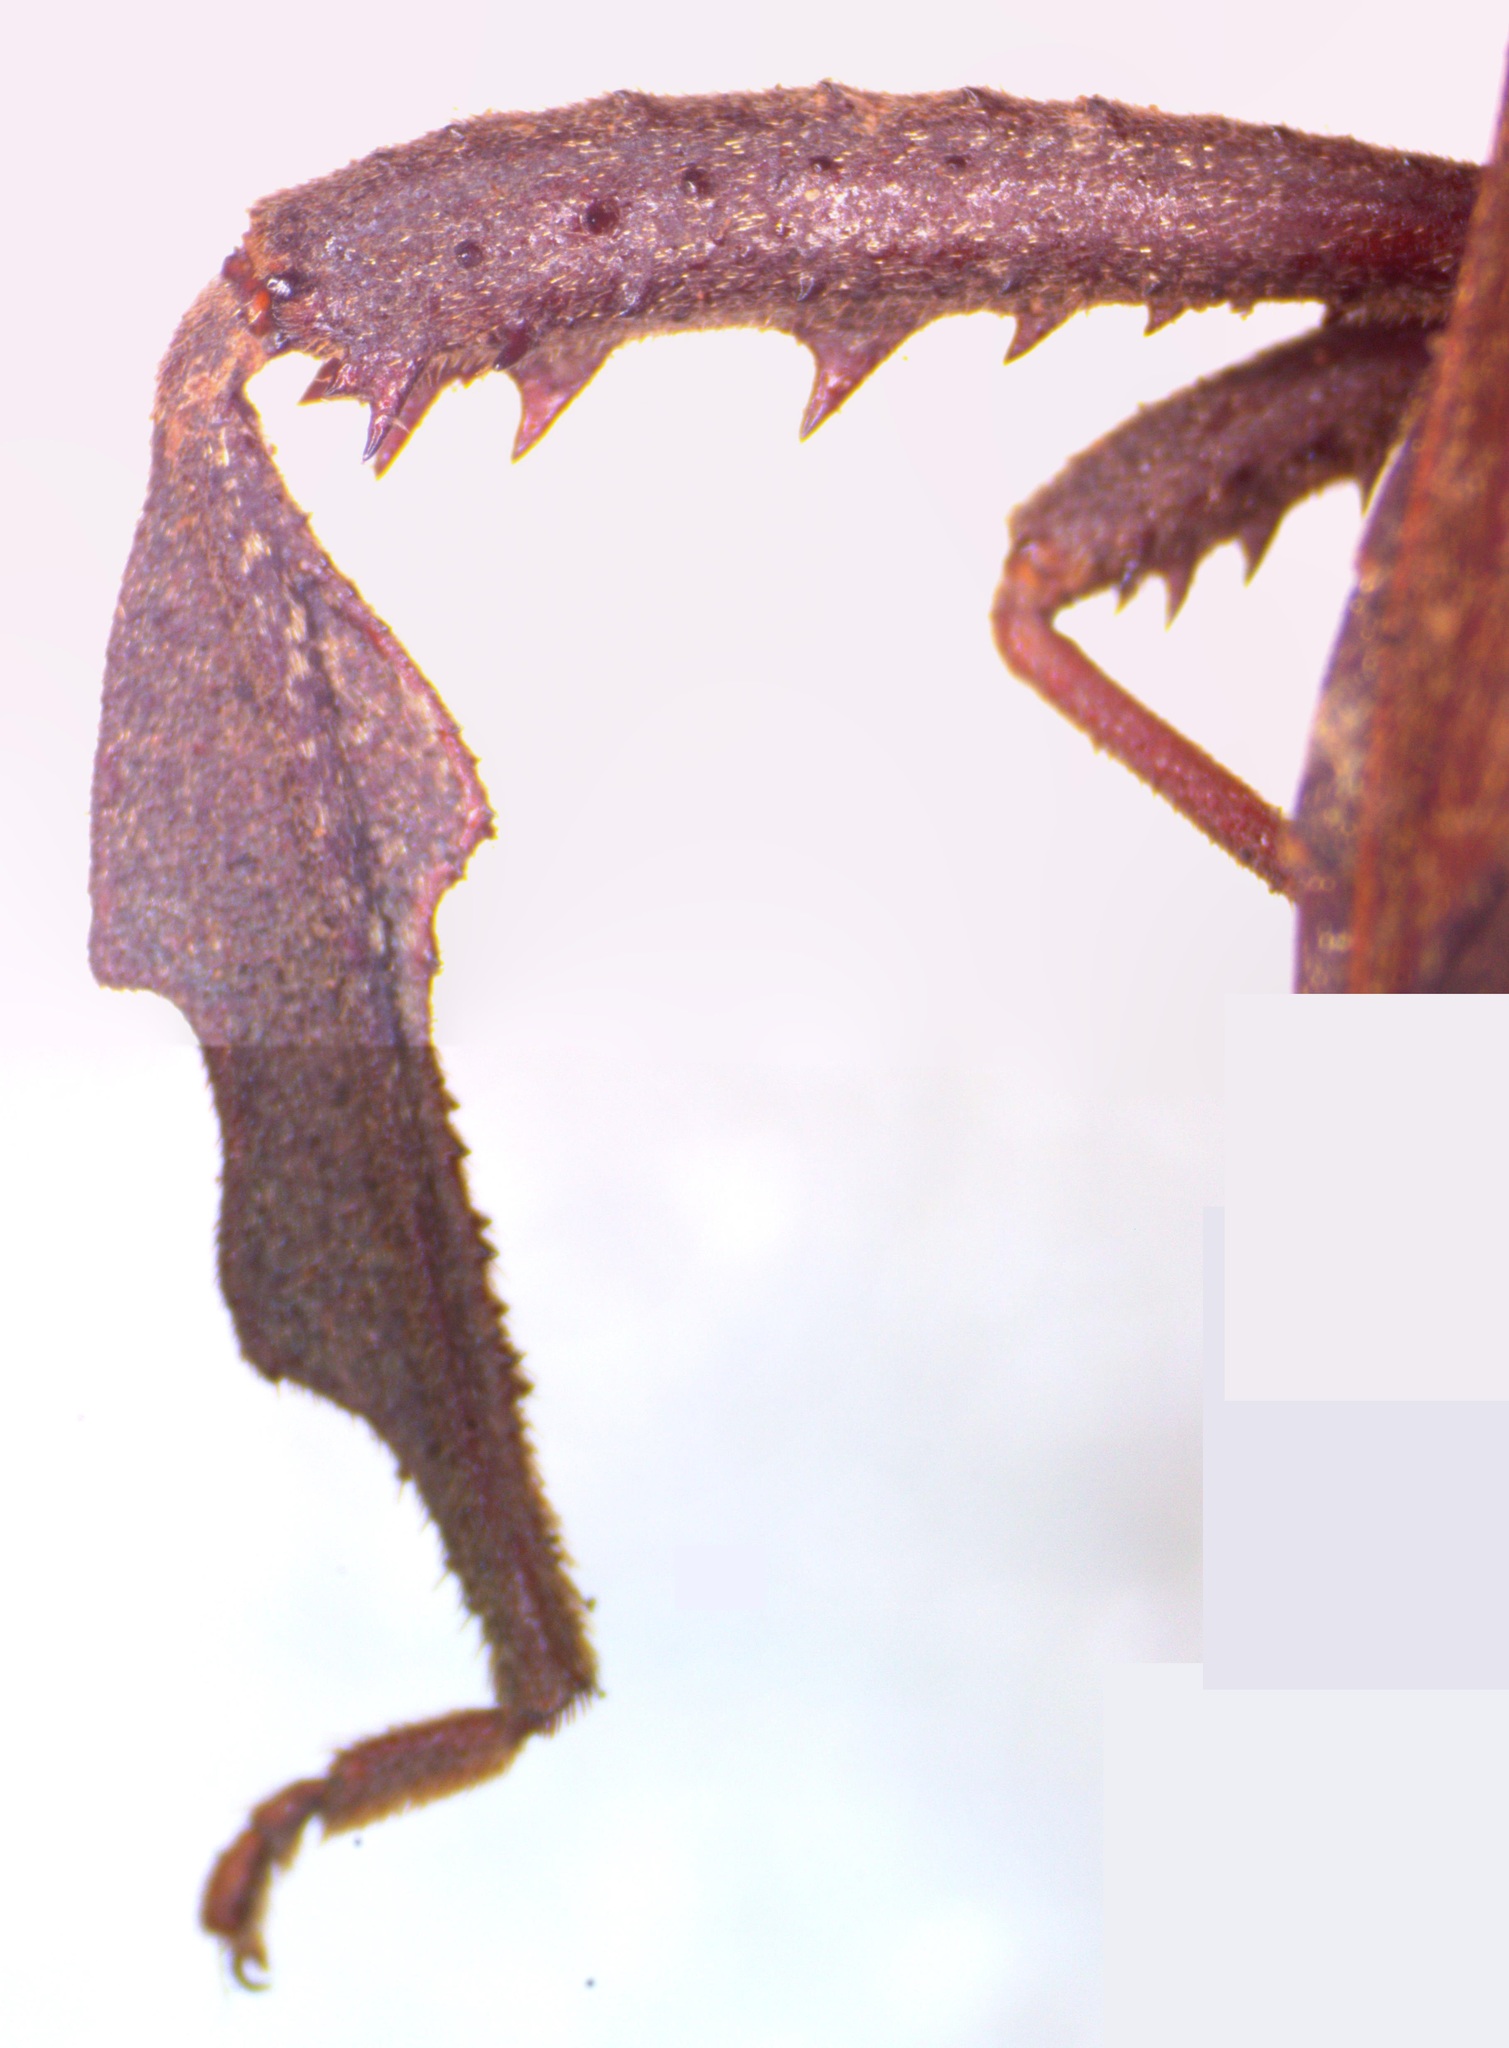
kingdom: Animalia
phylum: Arthropoda
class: Insecta
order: Hemiptera
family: Coreidae
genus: Acanthocephala
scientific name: Acanthocephala femorata
